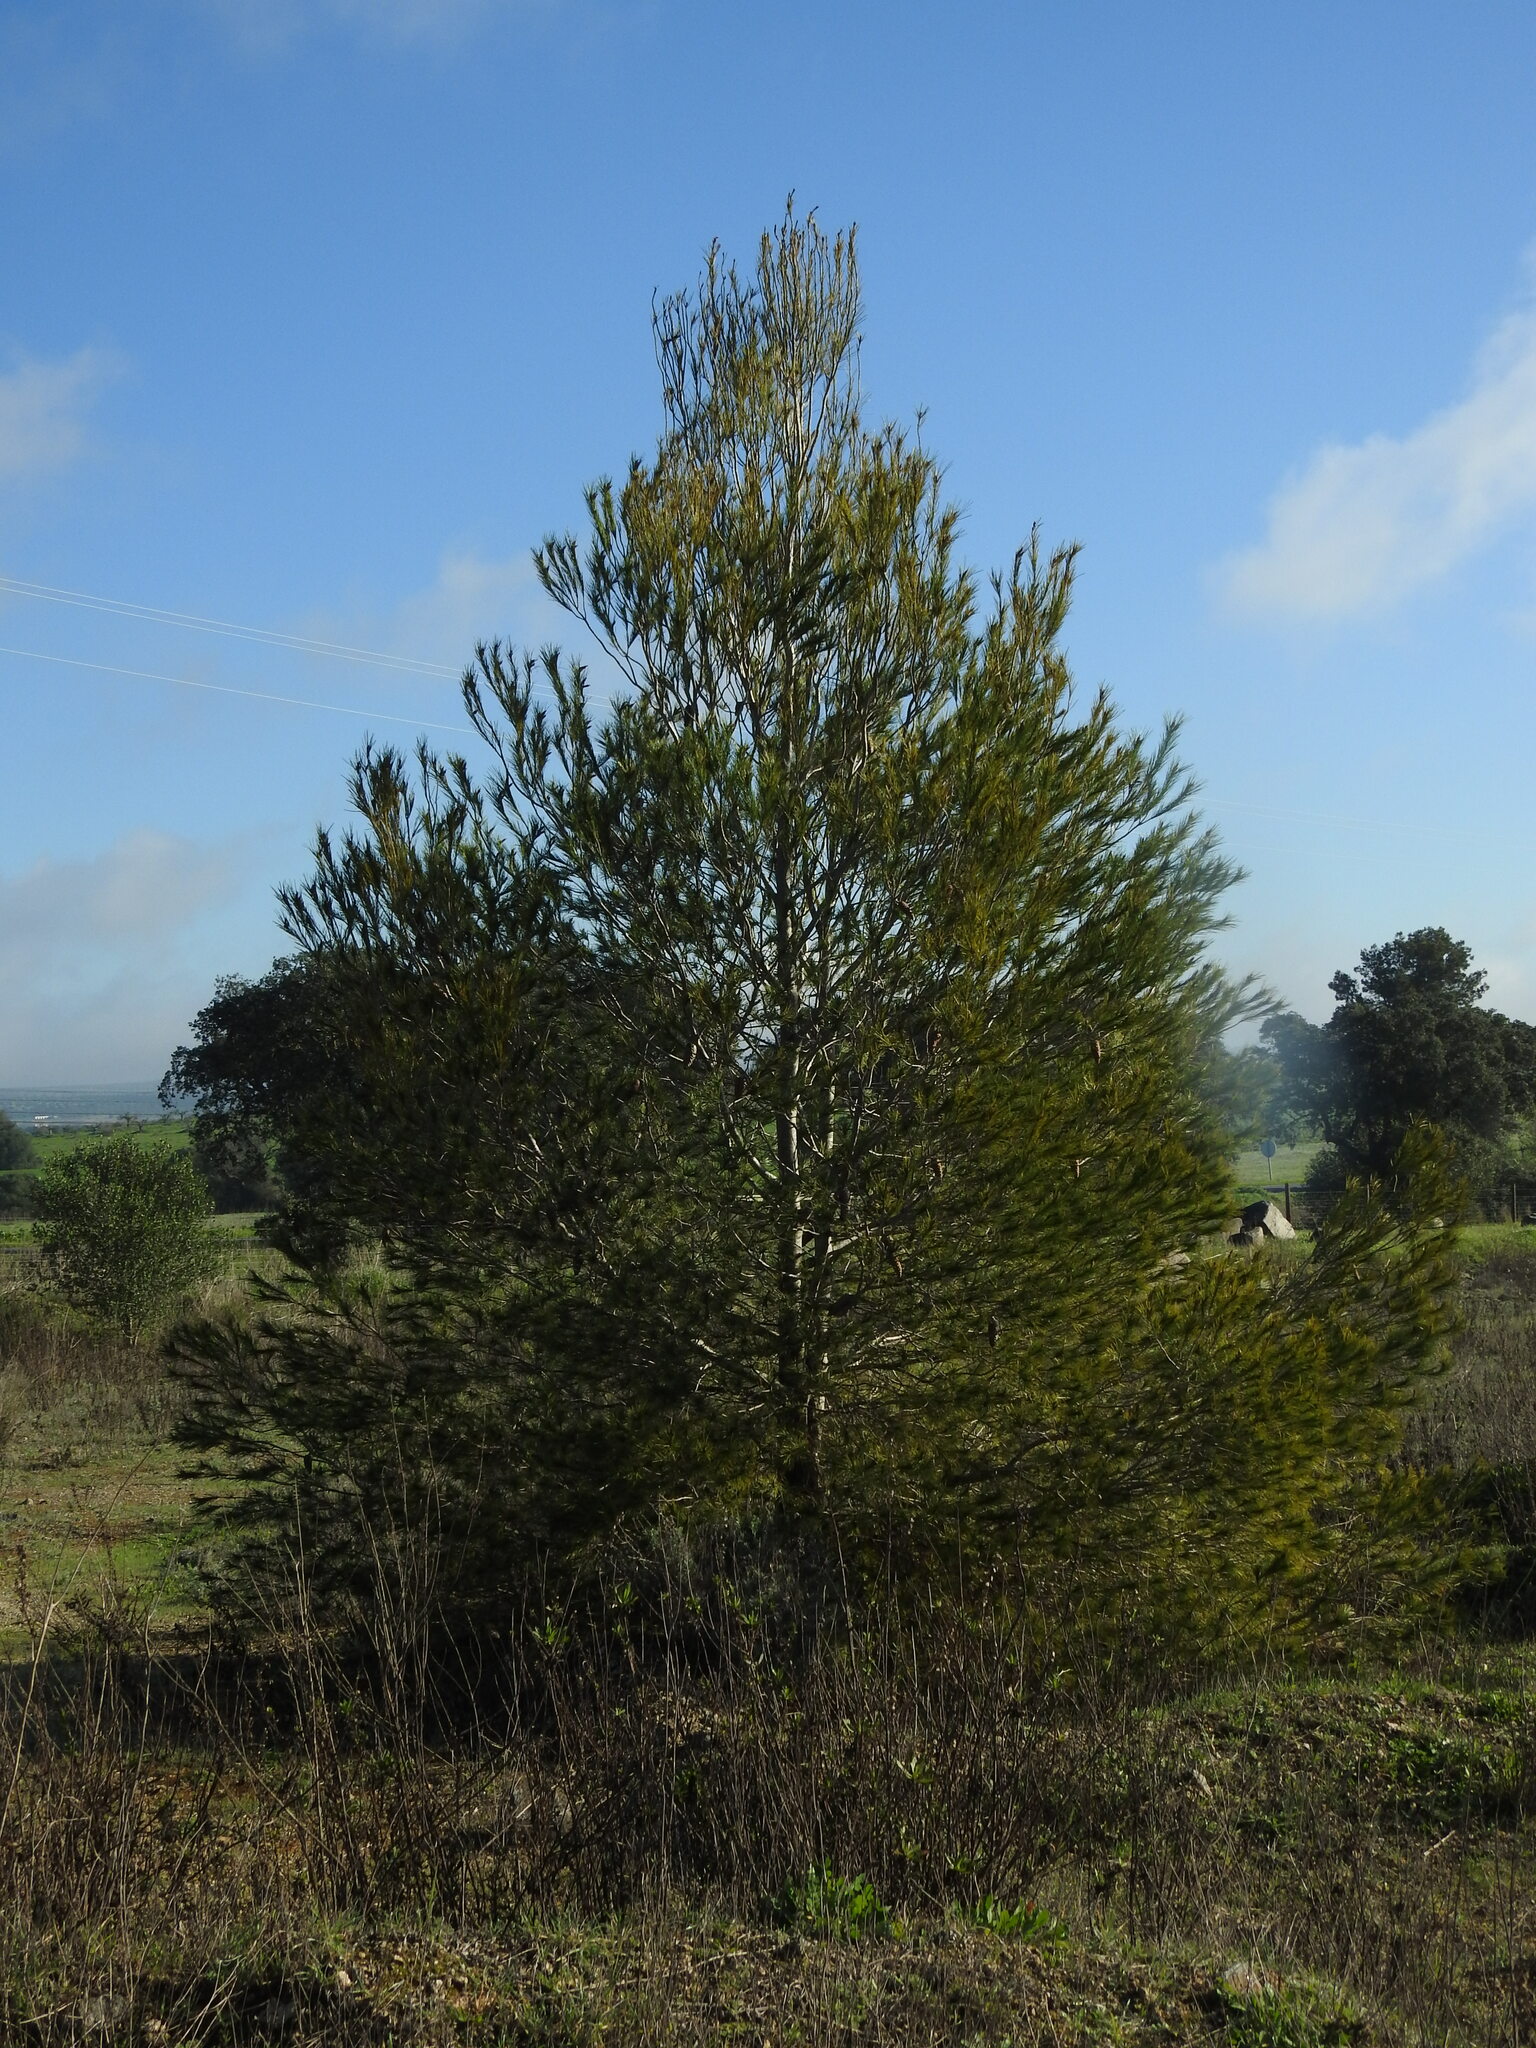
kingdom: Plantae
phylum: Tracheophyta
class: Pinopsida
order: Pinales
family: Pinaceae
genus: Pinus
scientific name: Pinus halepensis
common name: Aleppo pine
